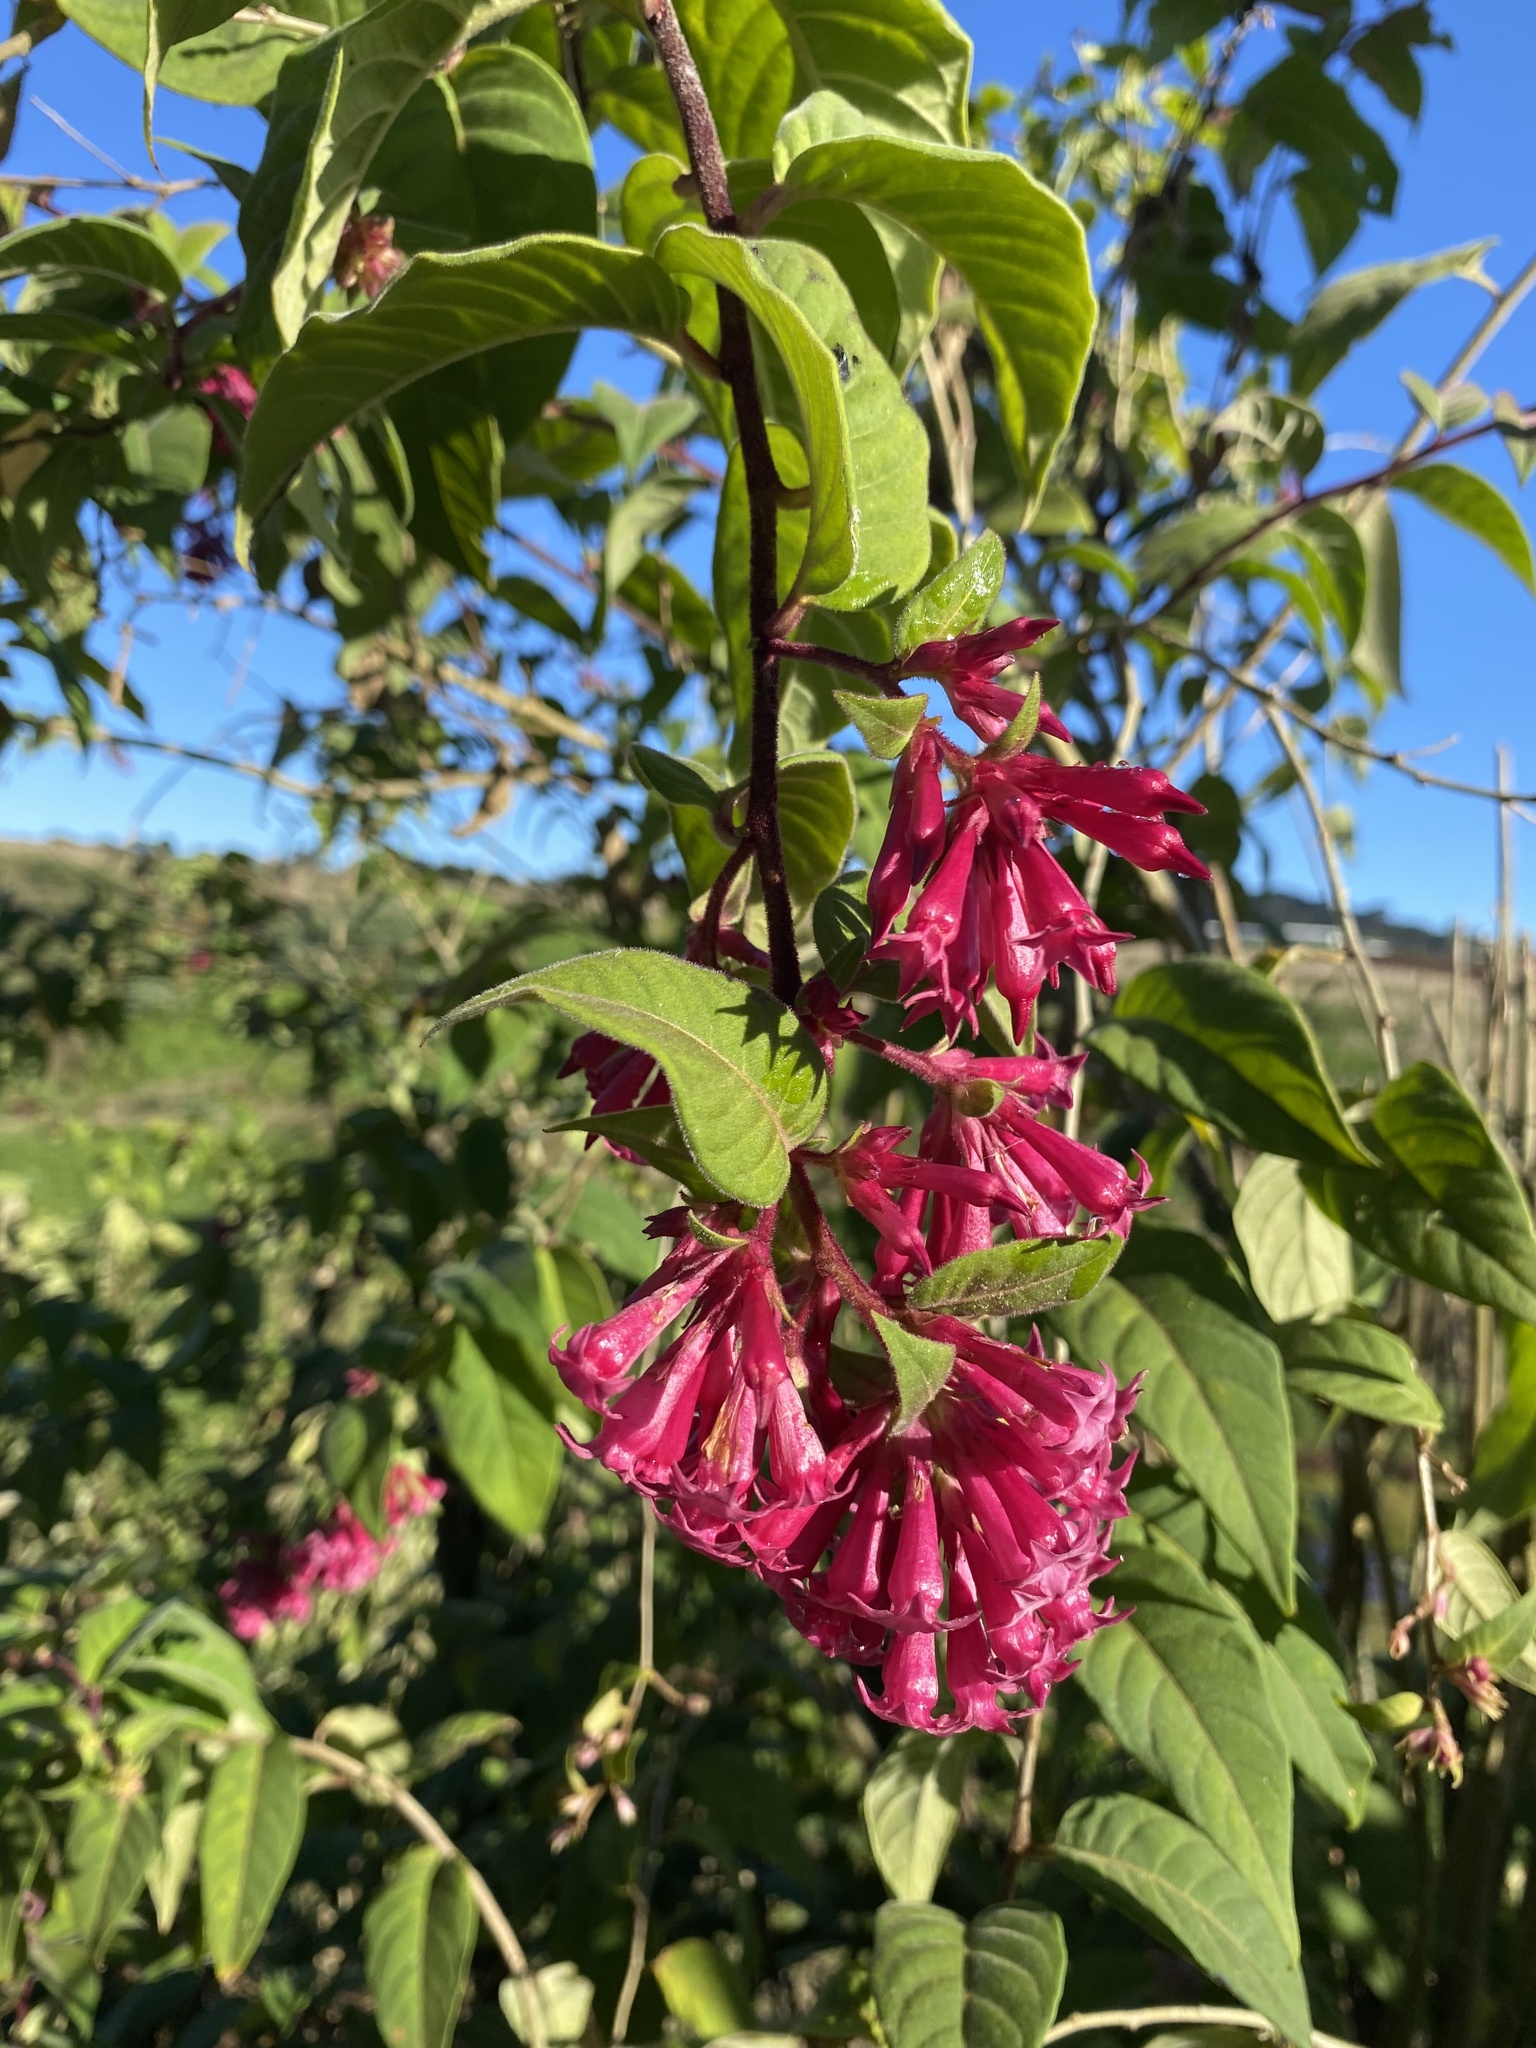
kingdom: Plantae
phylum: Tracheophyta
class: Magnoliopsida
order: Solanales
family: Solanaceae
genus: Cestrum
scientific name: Cestrum elegans
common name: Crimson cestrum
